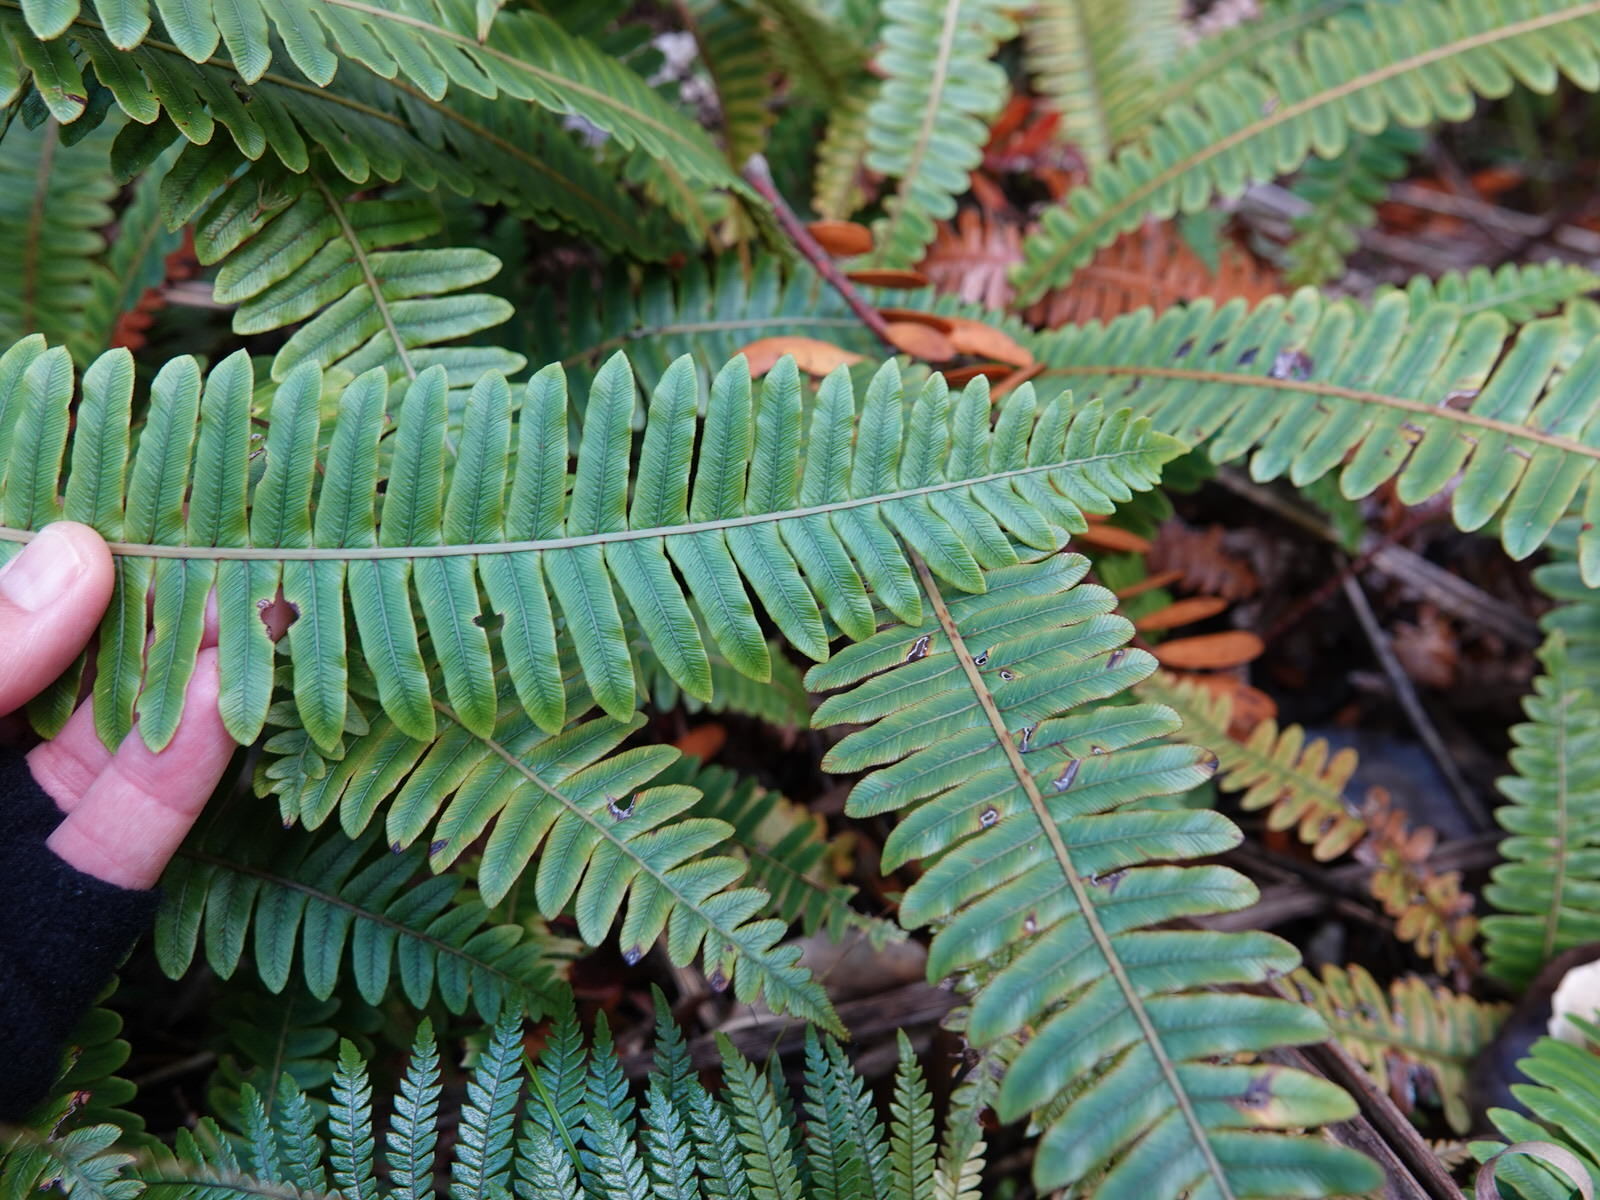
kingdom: Plantae
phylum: Tracheophyta
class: Polypodiopsida
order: Polypodiales
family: Blechnaceae
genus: Lomaria
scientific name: Lomaria discolor
